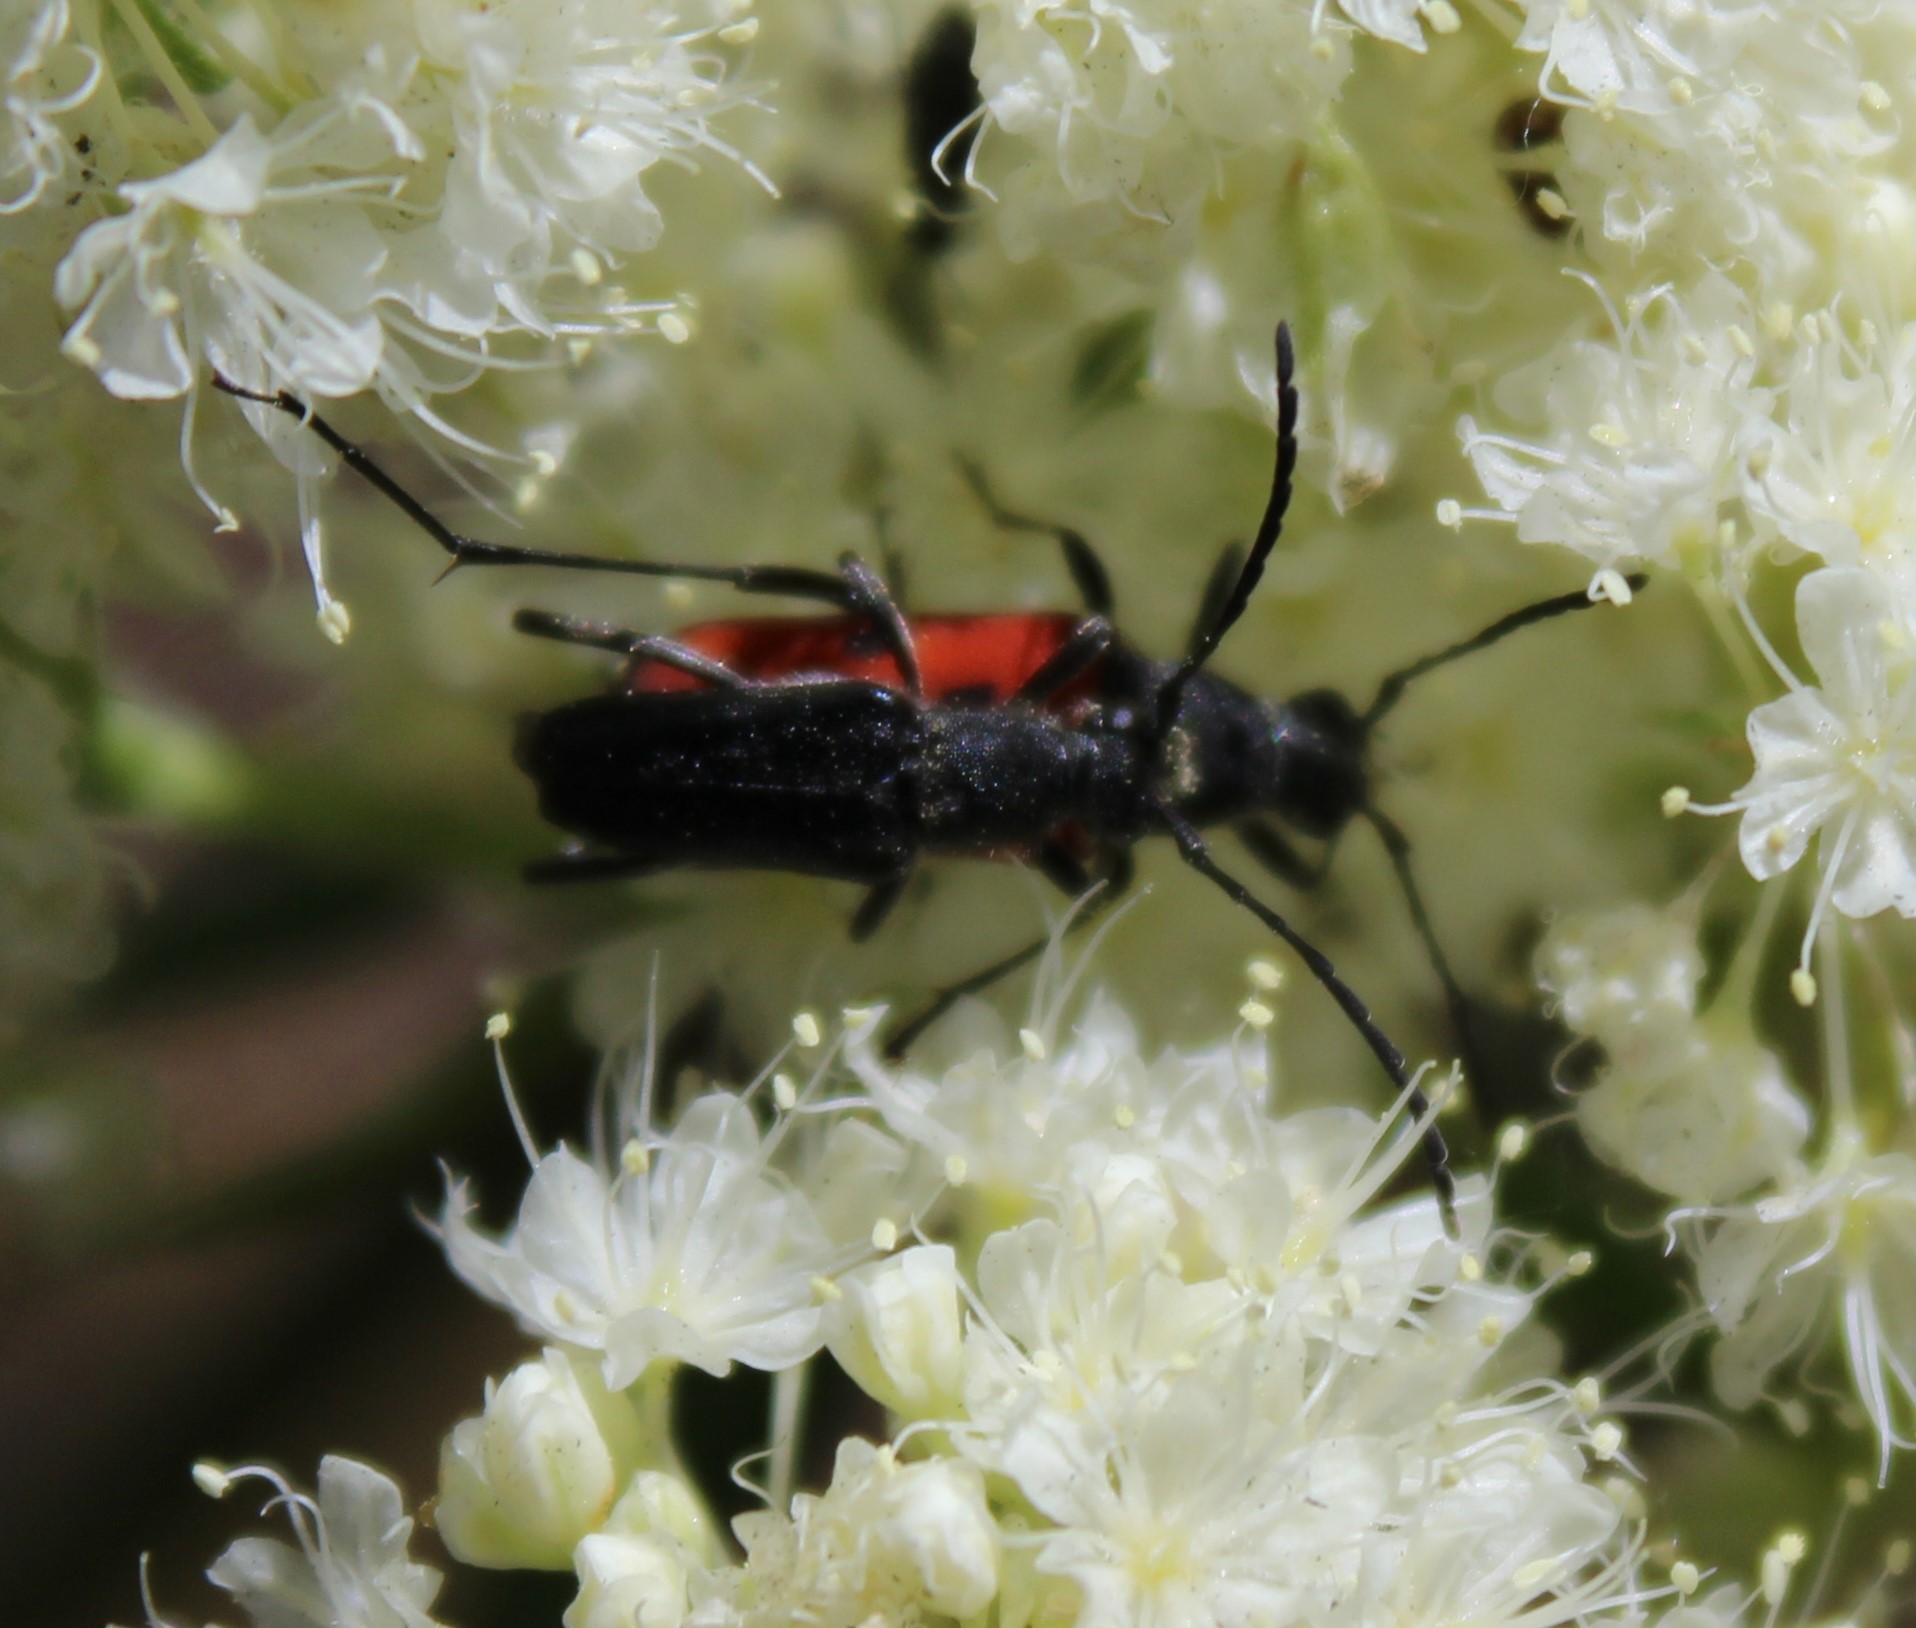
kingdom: Animalia
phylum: Arthropoda
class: Insecta
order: Coleoptera
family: Cerambycidae
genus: Anastrangalia
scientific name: Anastrangalia laetifica
